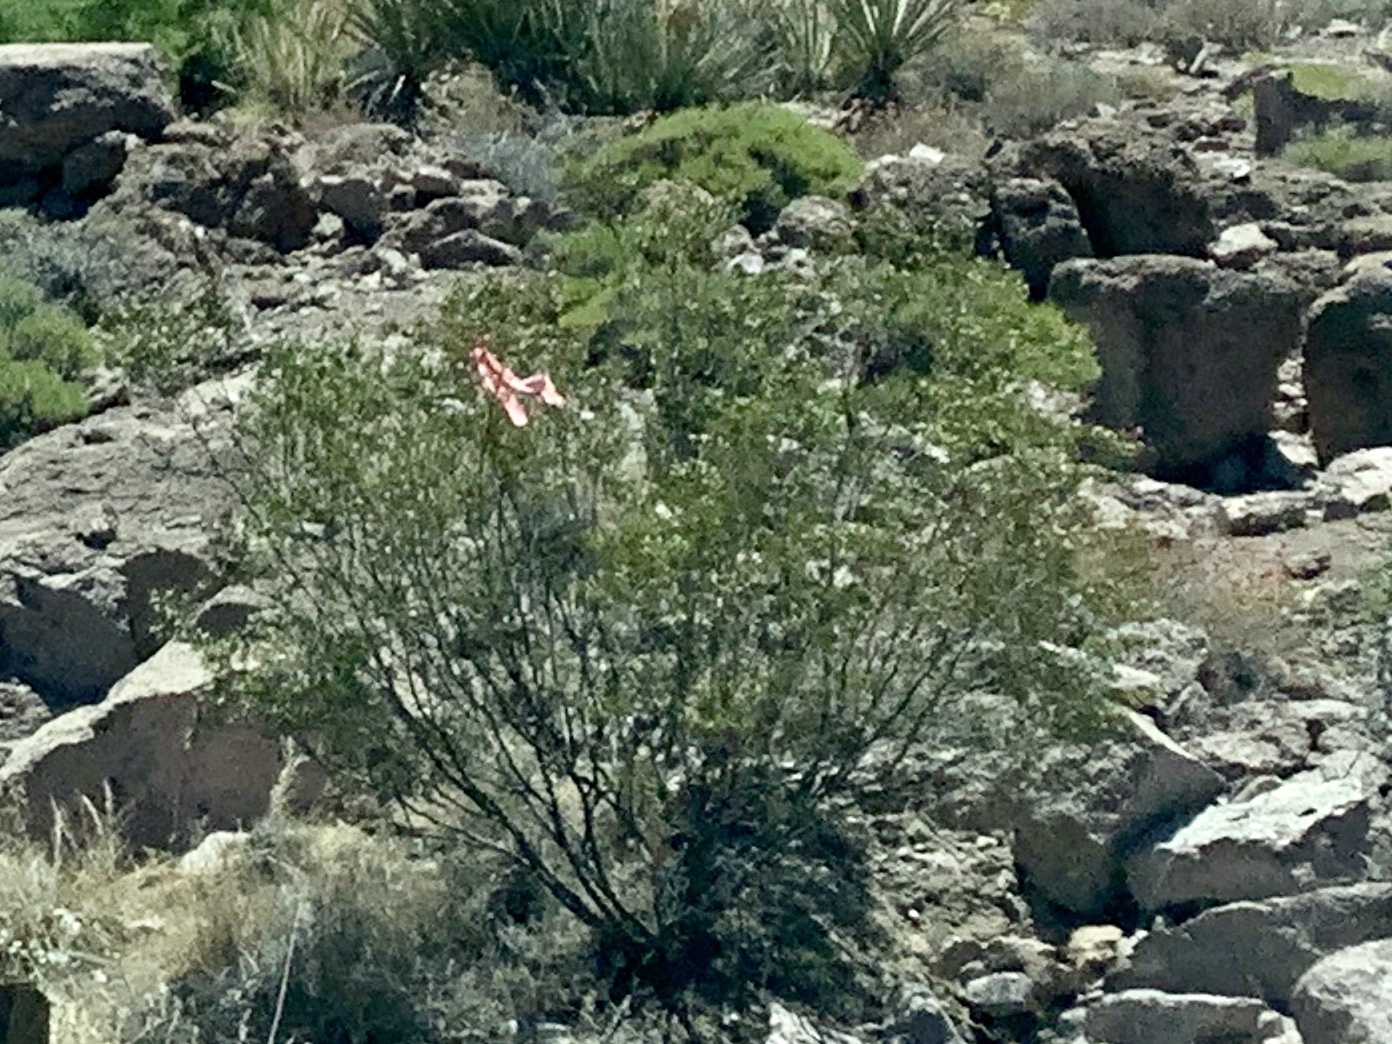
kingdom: Plantae
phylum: Tracheophyta
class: Magnoliopsida
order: Zygophyllales
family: Zygophyllaceae
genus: Larrea
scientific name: Larrea tridentata
